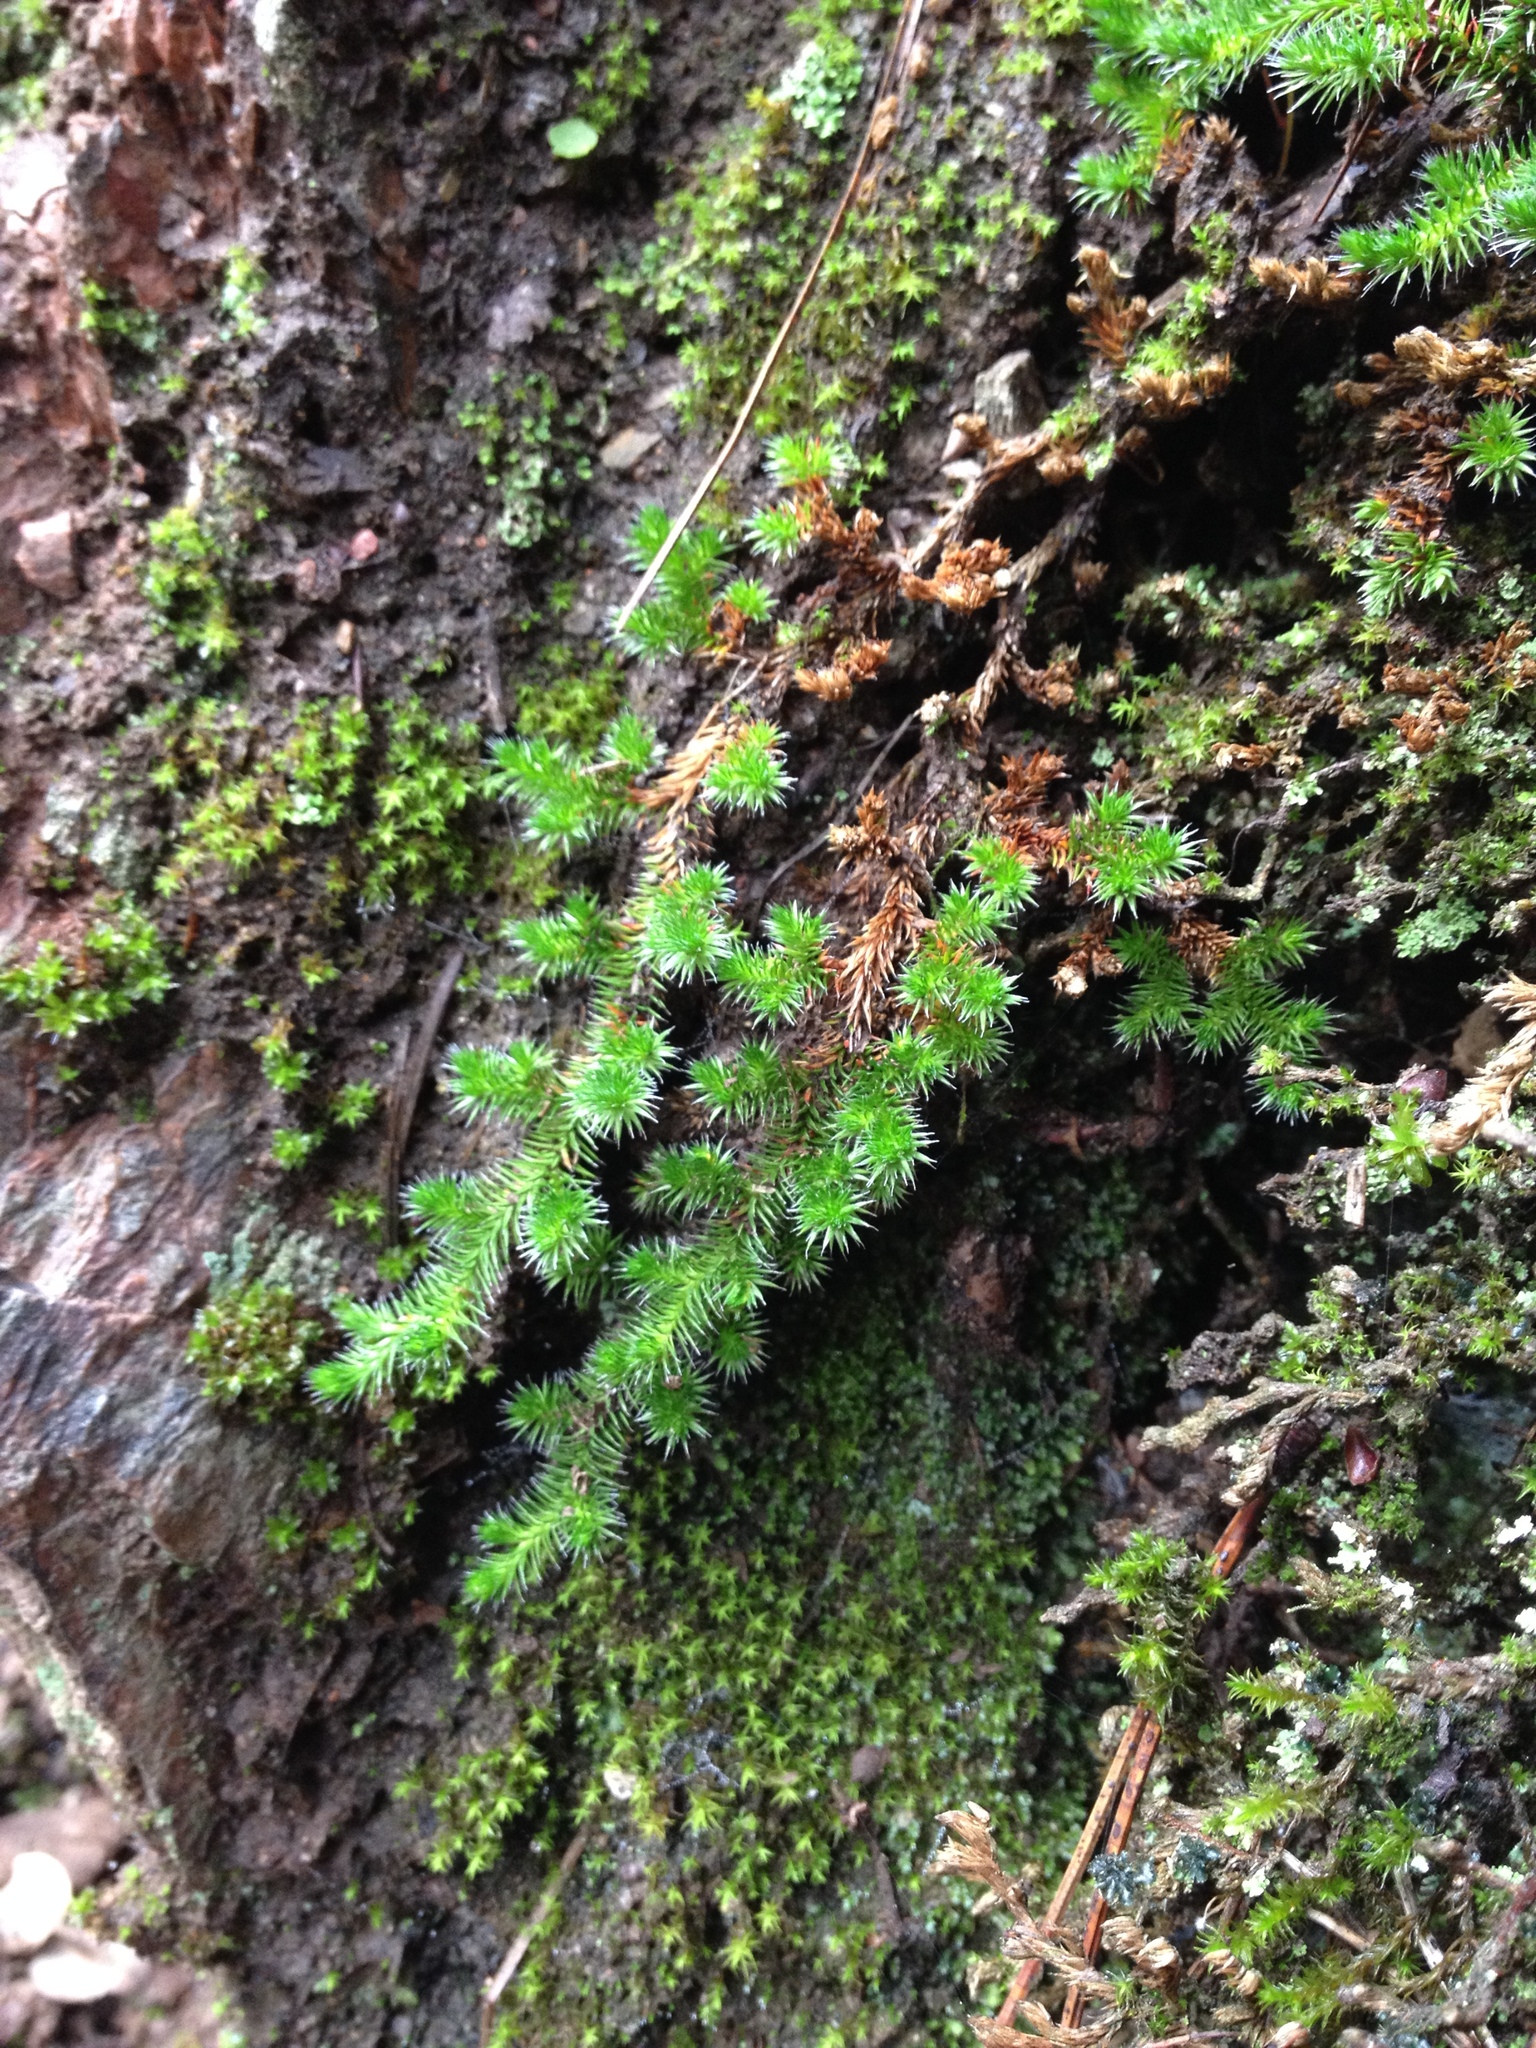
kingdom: Plantae
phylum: Tracheophyta
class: Lycopodiopsida
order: Selaginellales
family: Selaginellaceae
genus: Selaginella
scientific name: Selaginella hansenii
